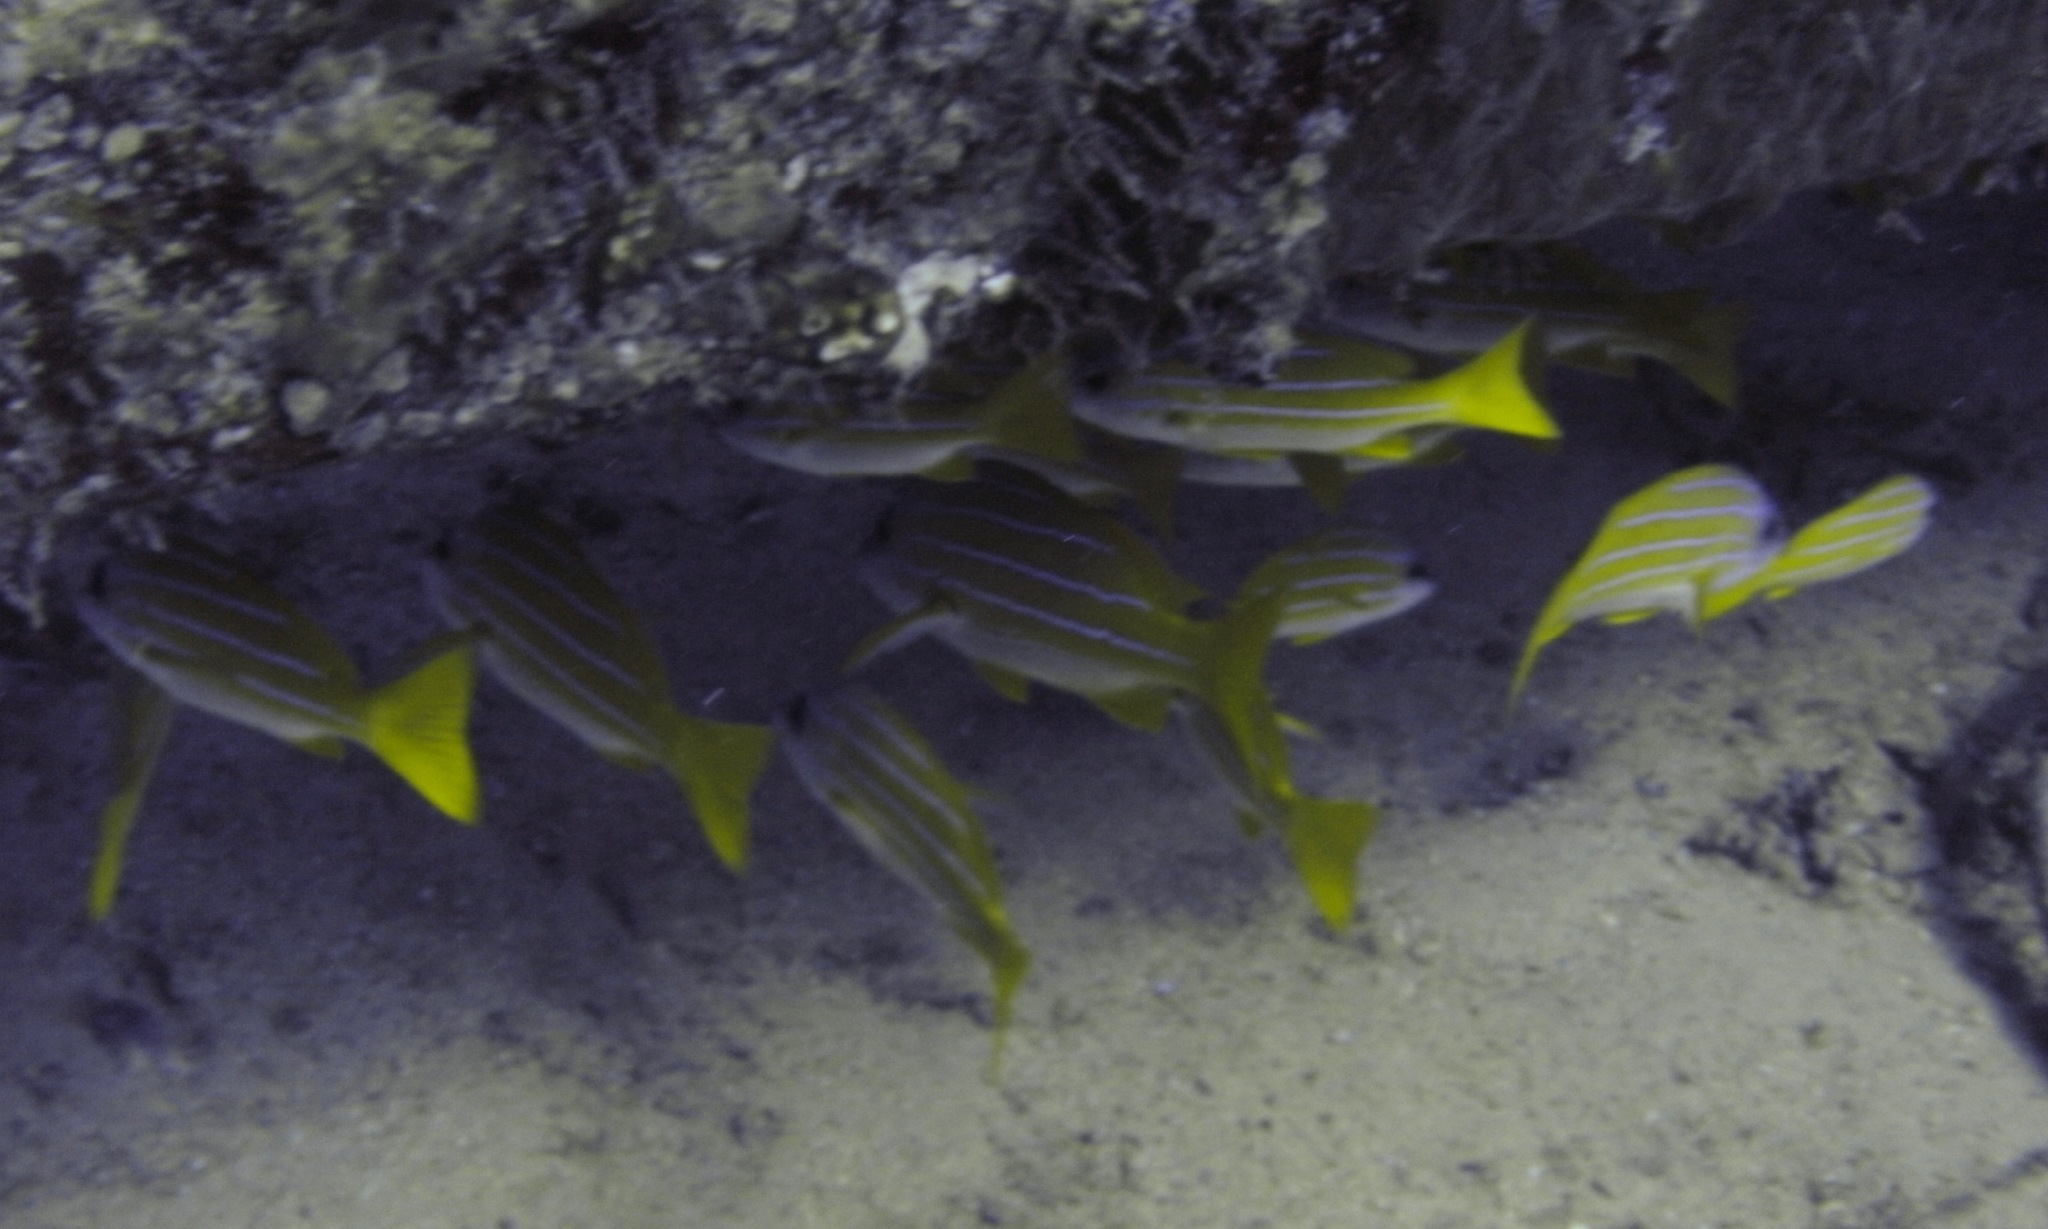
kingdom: Animalia
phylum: Chordata
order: Perciformes
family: Lutjanidae
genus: Lutjanus
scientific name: Lutjanus kasmira
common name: Common bluestripe snapper
